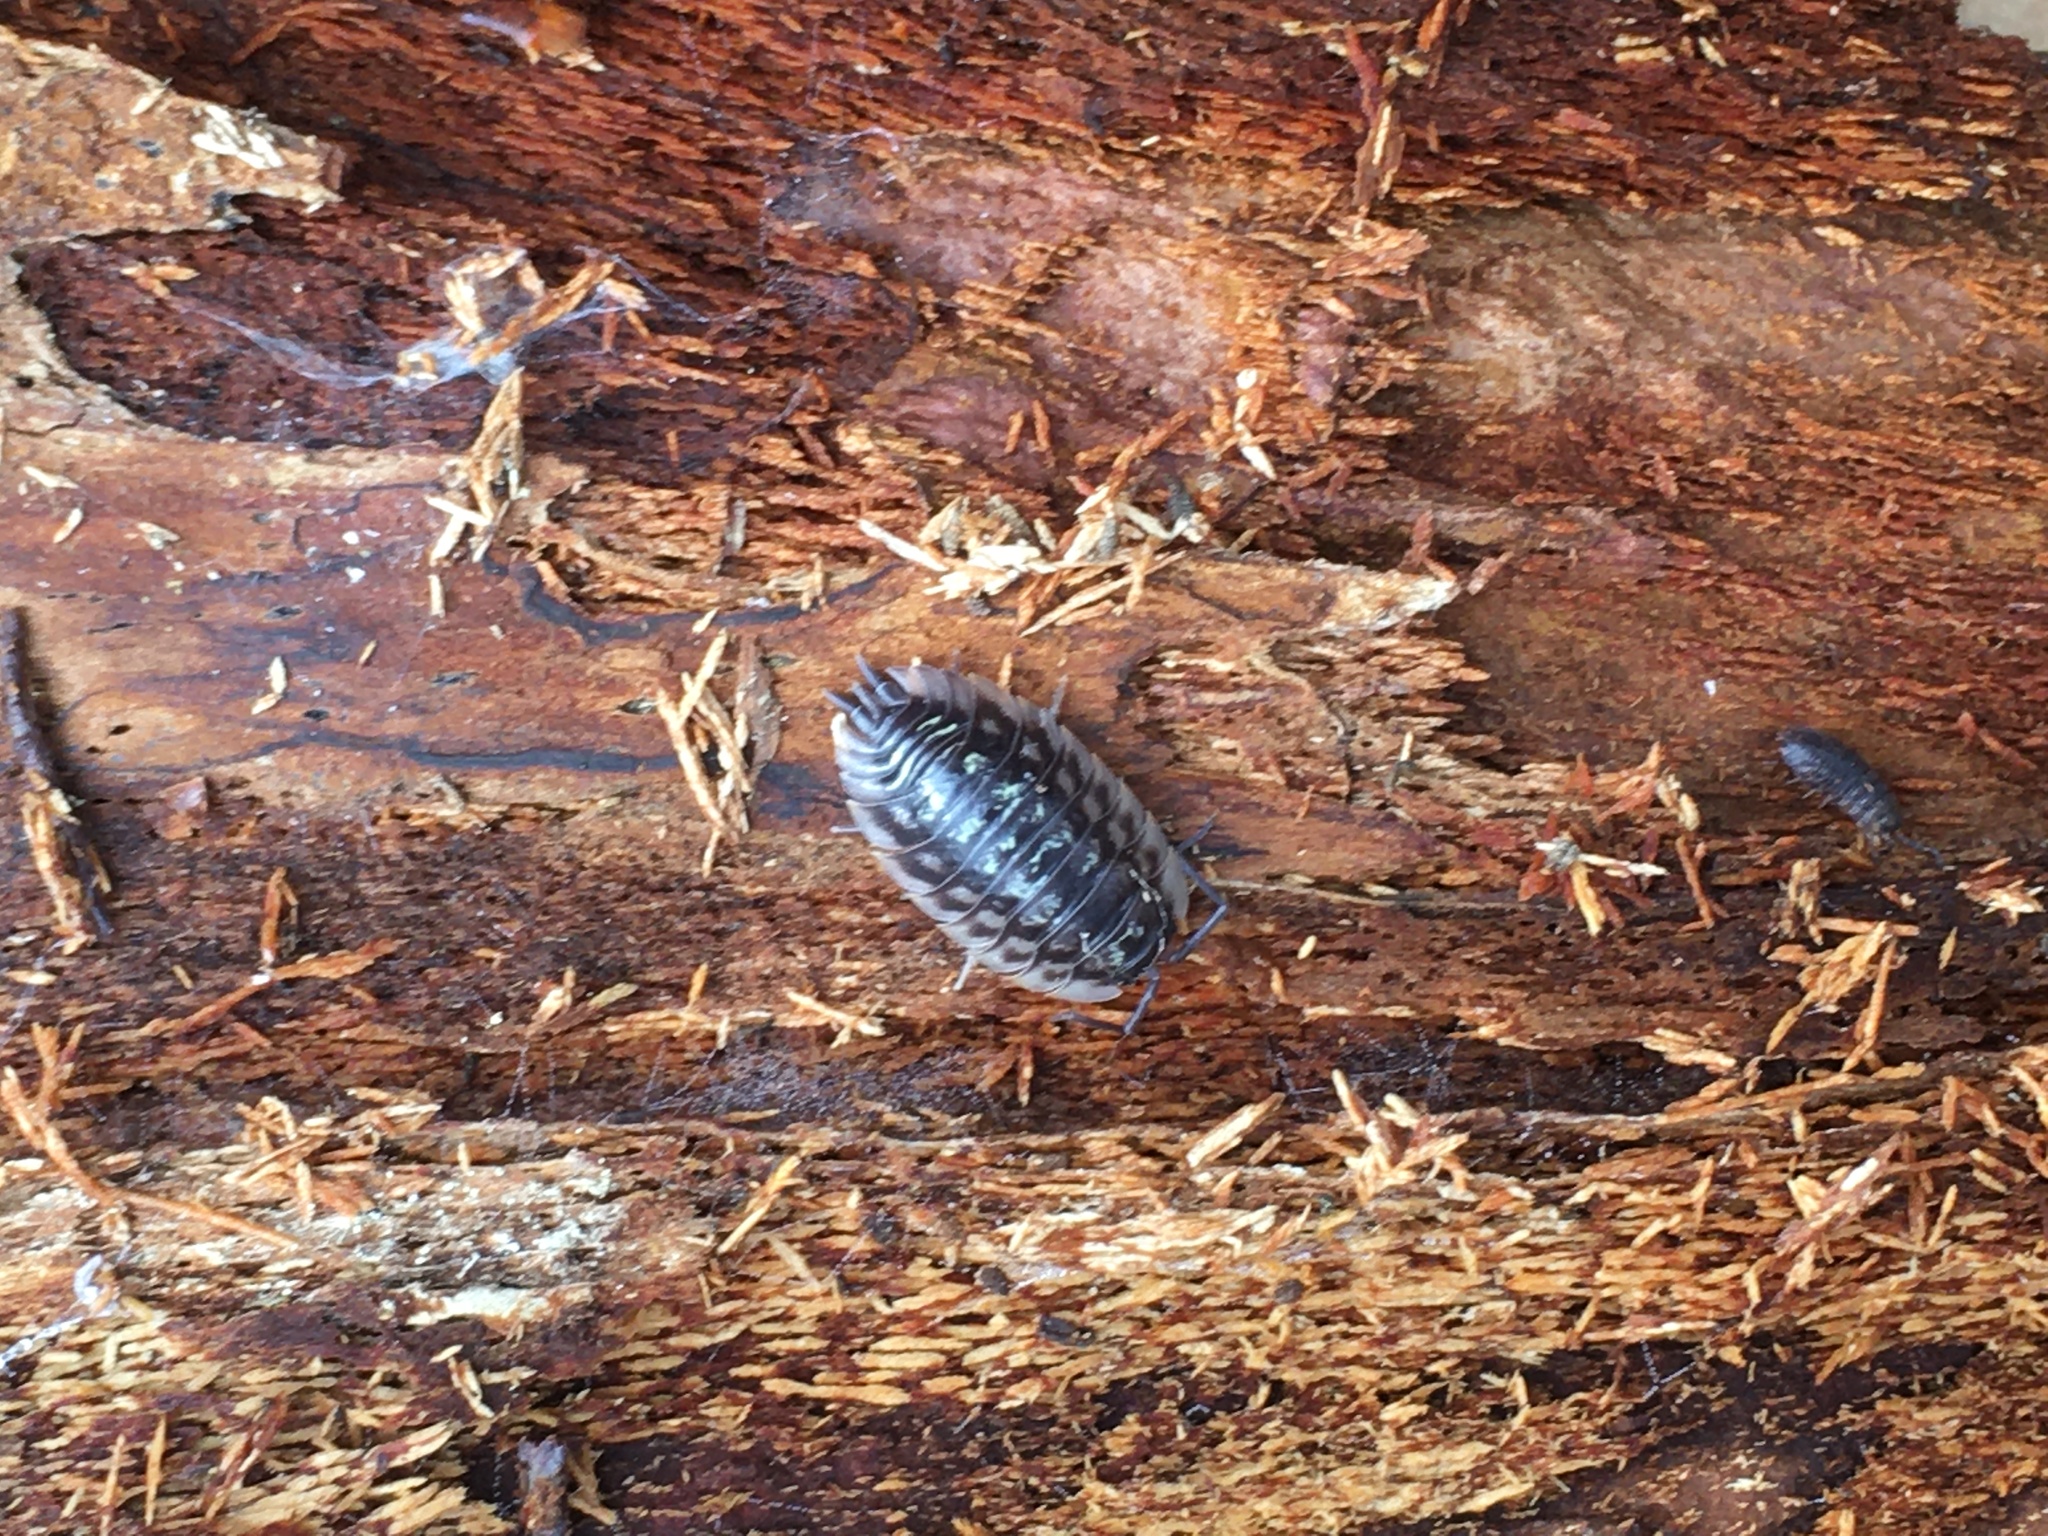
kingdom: Animalia
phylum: Arthropoda
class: Malacostraca
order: Isopoda
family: Oniscidae
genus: Oniscus
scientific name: Oniscus asellus
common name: Common shiny woodlouse
